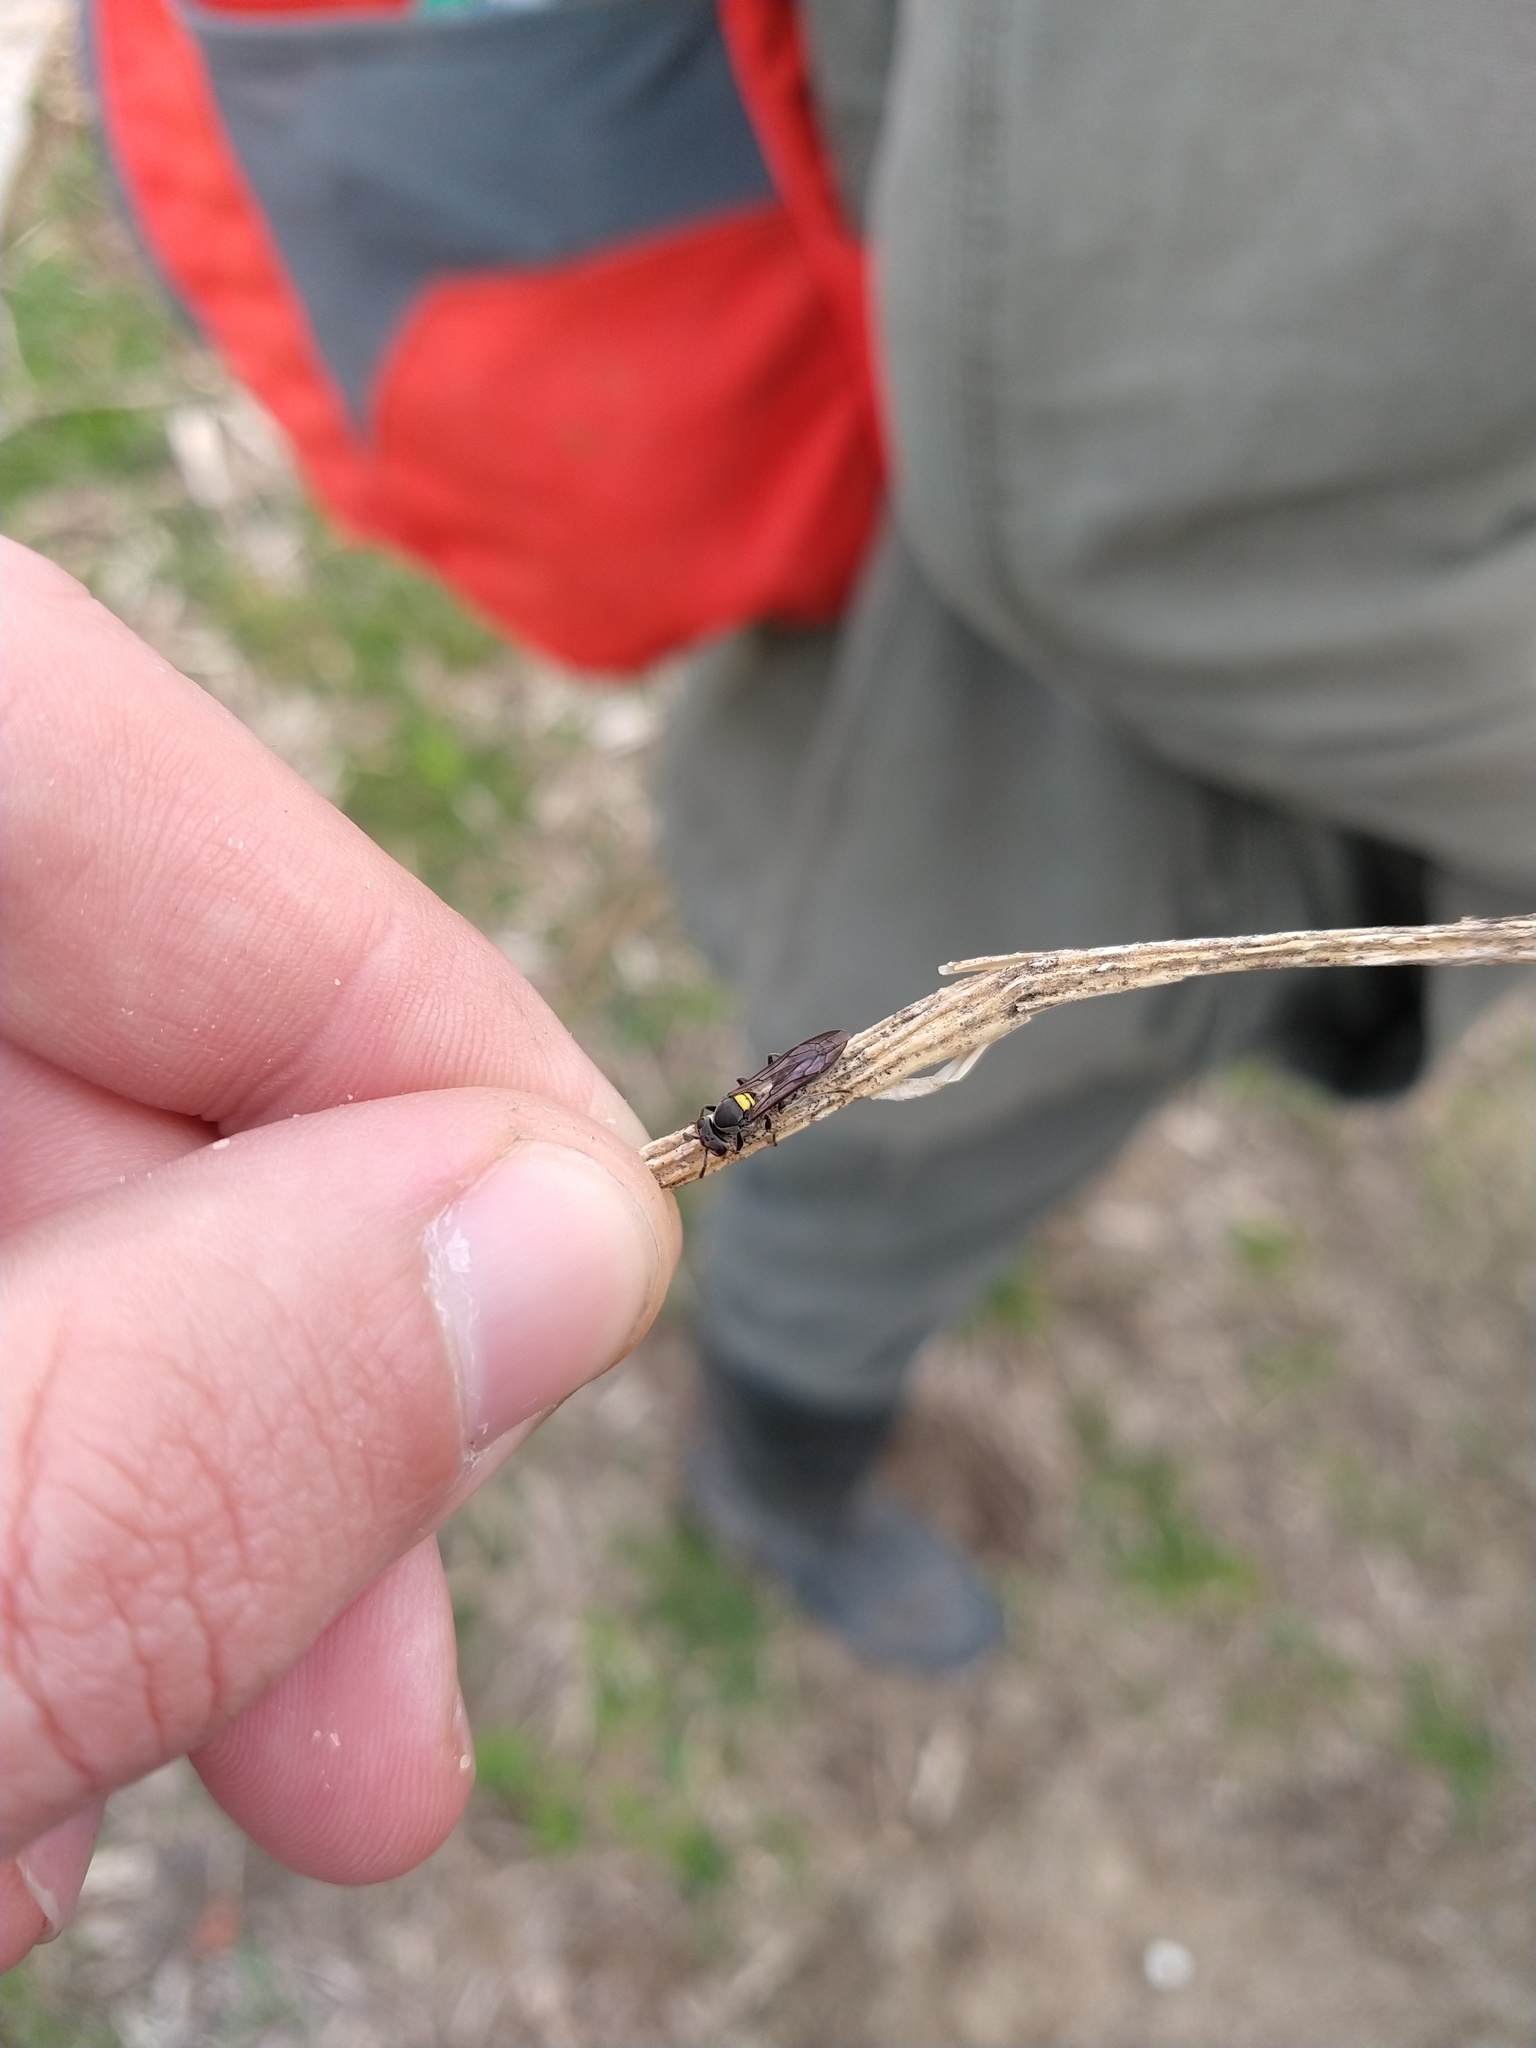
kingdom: Animalia
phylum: Arthropoda
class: Insecta
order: Hymenoptera
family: Eumenidae
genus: Polybia
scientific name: Polybia scutellaris
